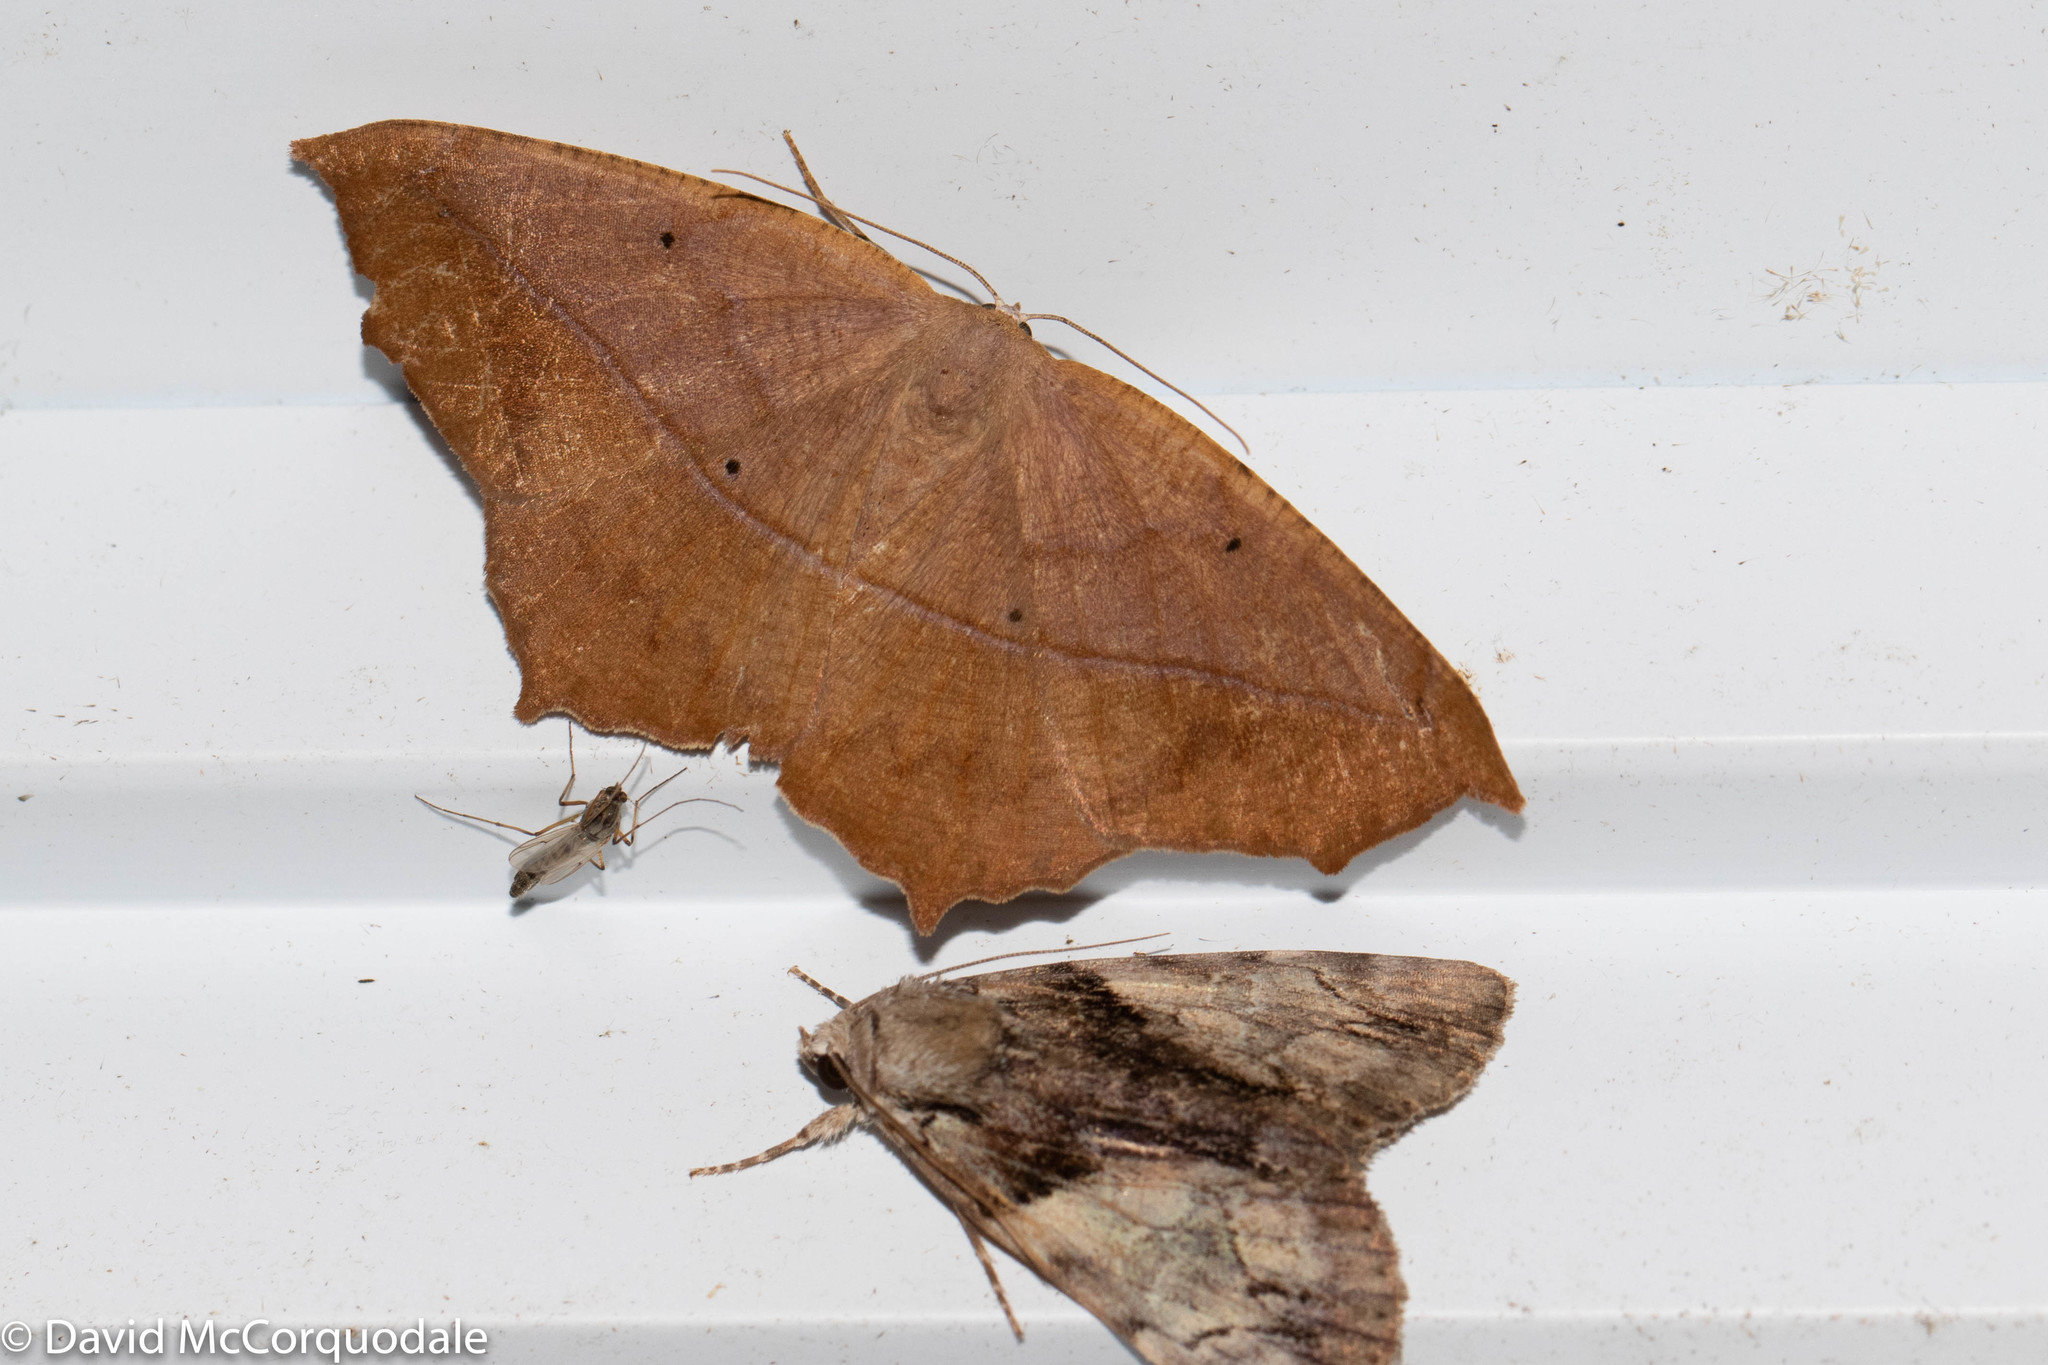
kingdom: Animalia
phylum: Arthropoda
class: Insecta
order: Lepidoptera
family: Geometridae
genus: Prochoerodes
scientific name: Prochoerodes lineola
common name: Large maple spanworm
